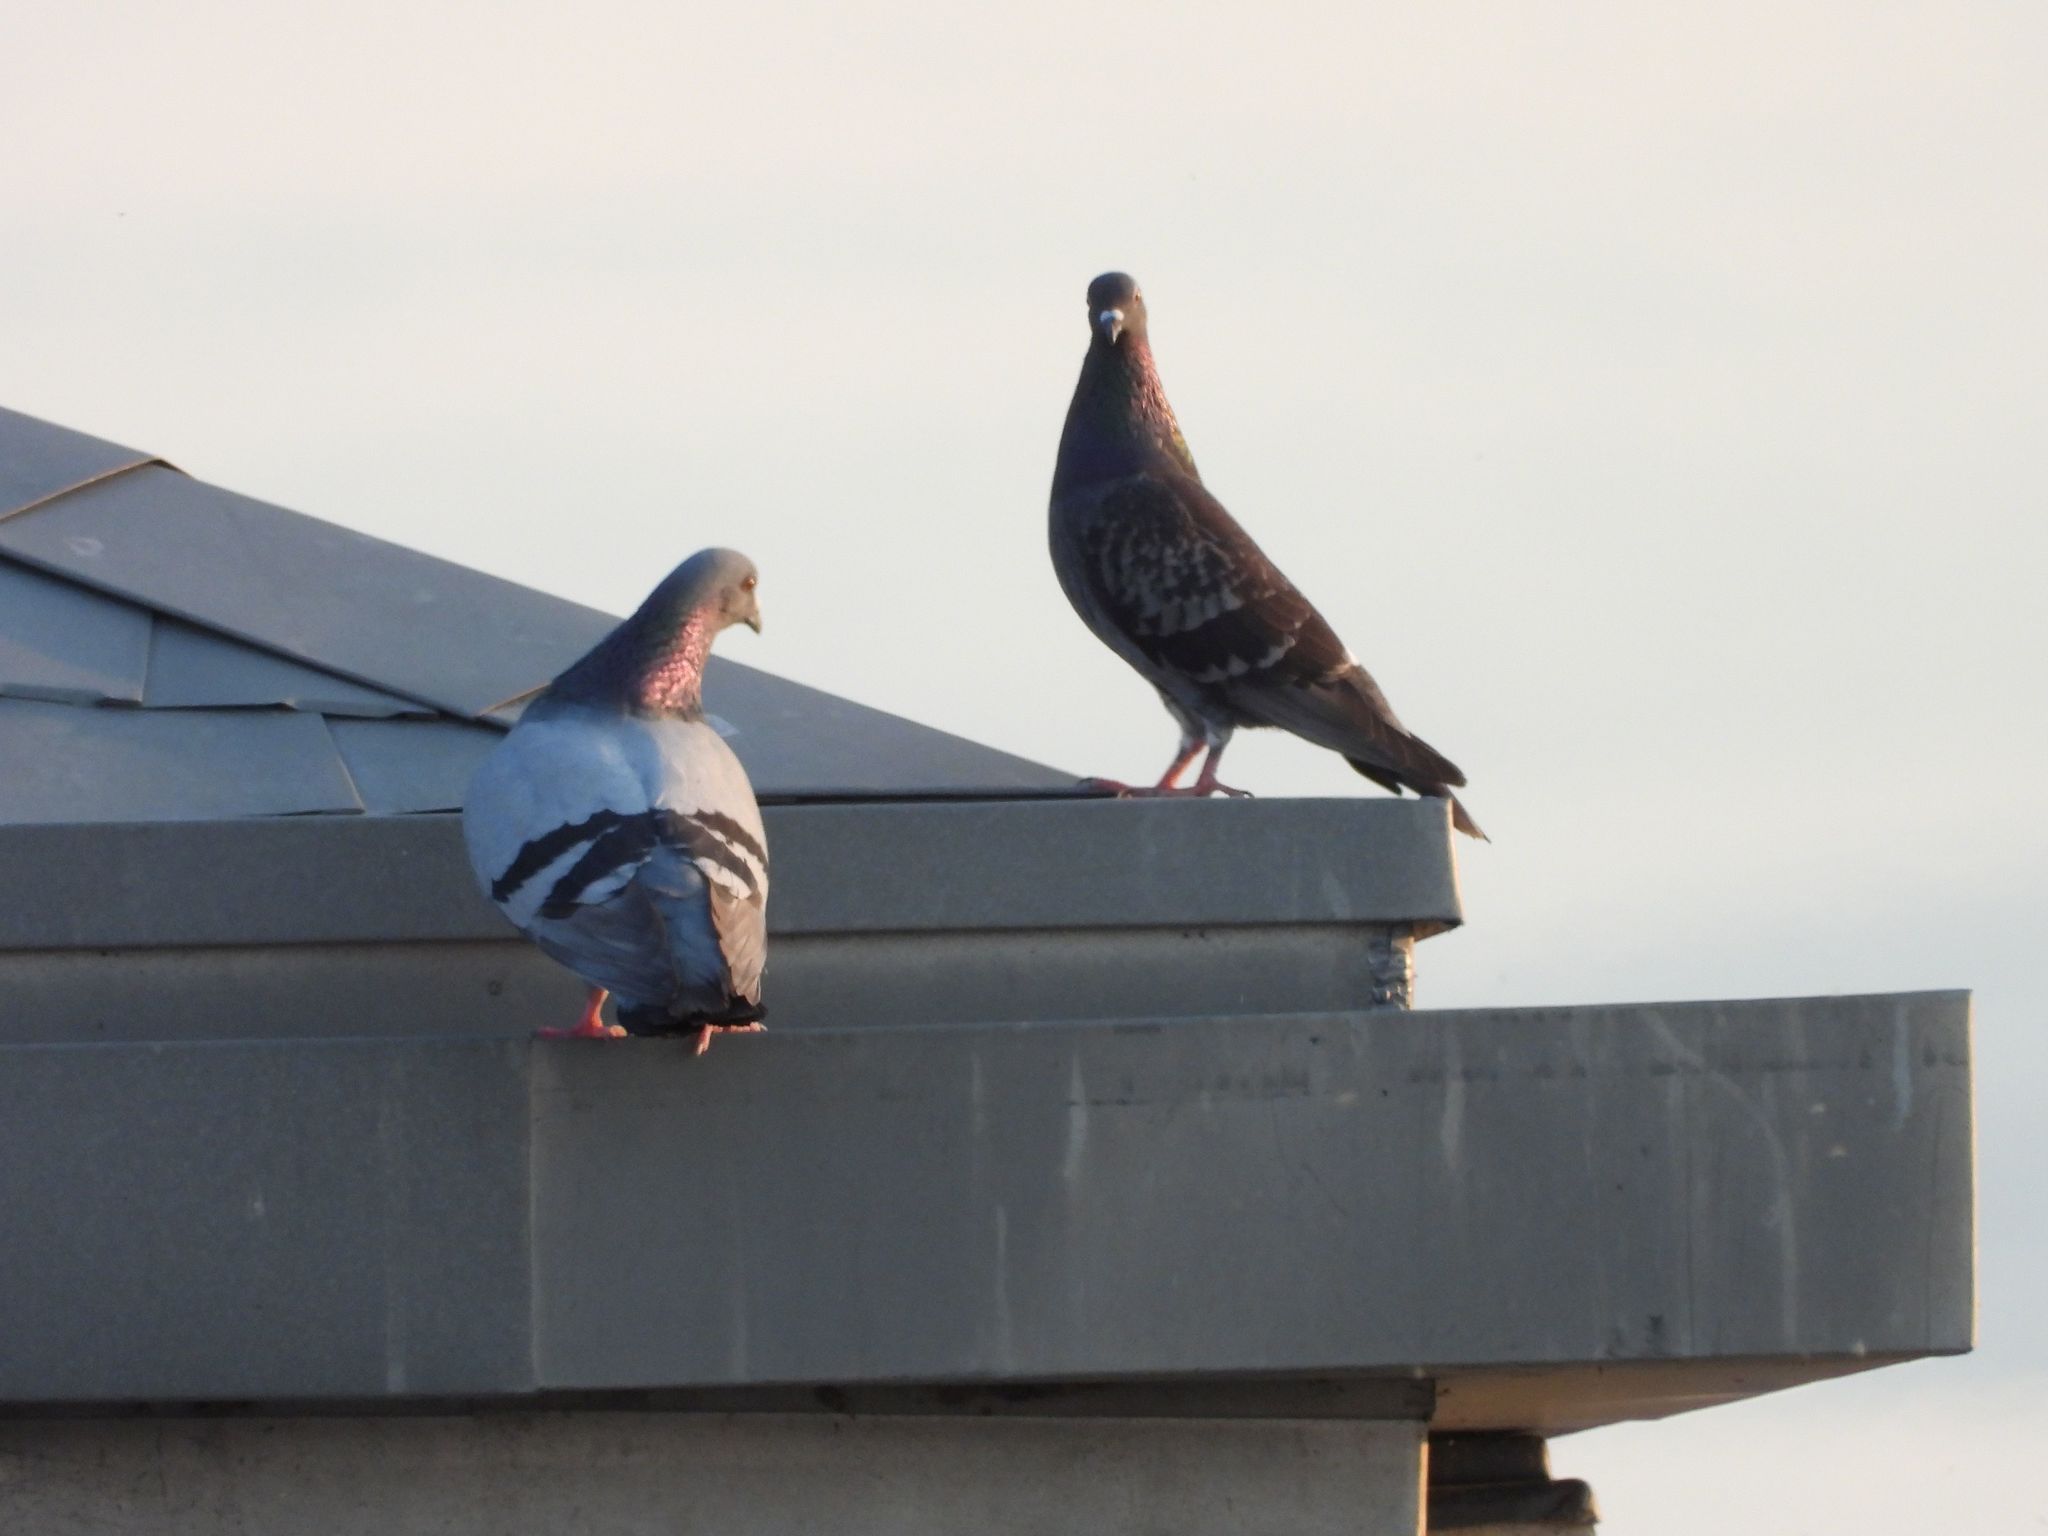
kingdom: Animalia
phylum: Chordata
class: Aves
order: Columbiformes
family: Columbidae
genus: Columba
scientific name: Columba livia
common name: Rock pigeon
